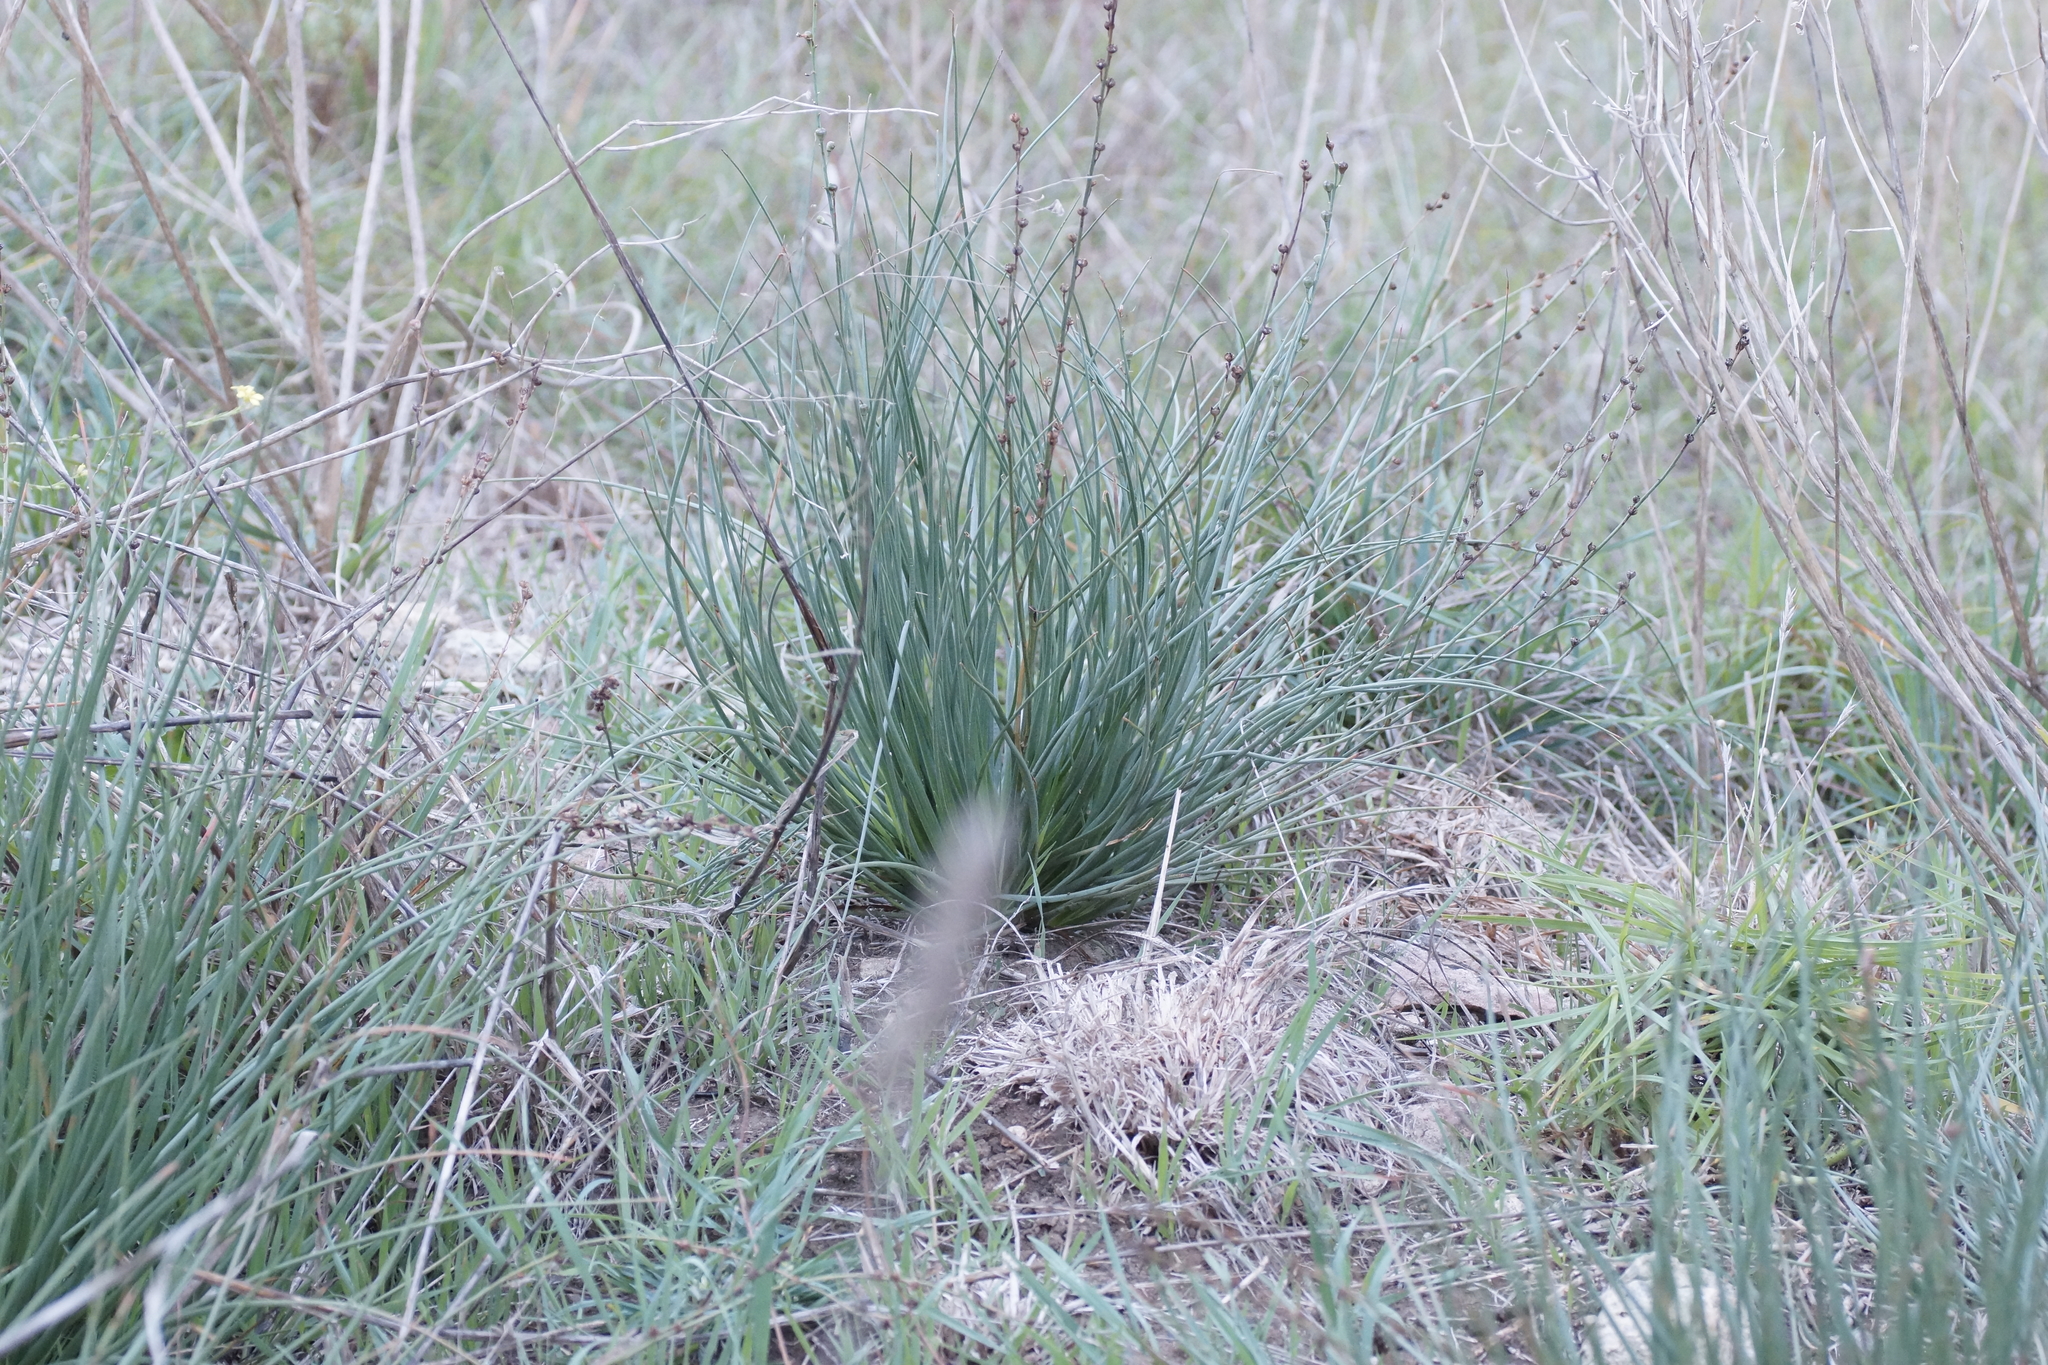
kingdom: Plantae
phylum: Tracheophyta
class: Liliopsida
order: Asparagales
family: Asphodelaceae
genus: Asphodelus
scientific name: Asphodelus fistulosus
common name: Onionweed
